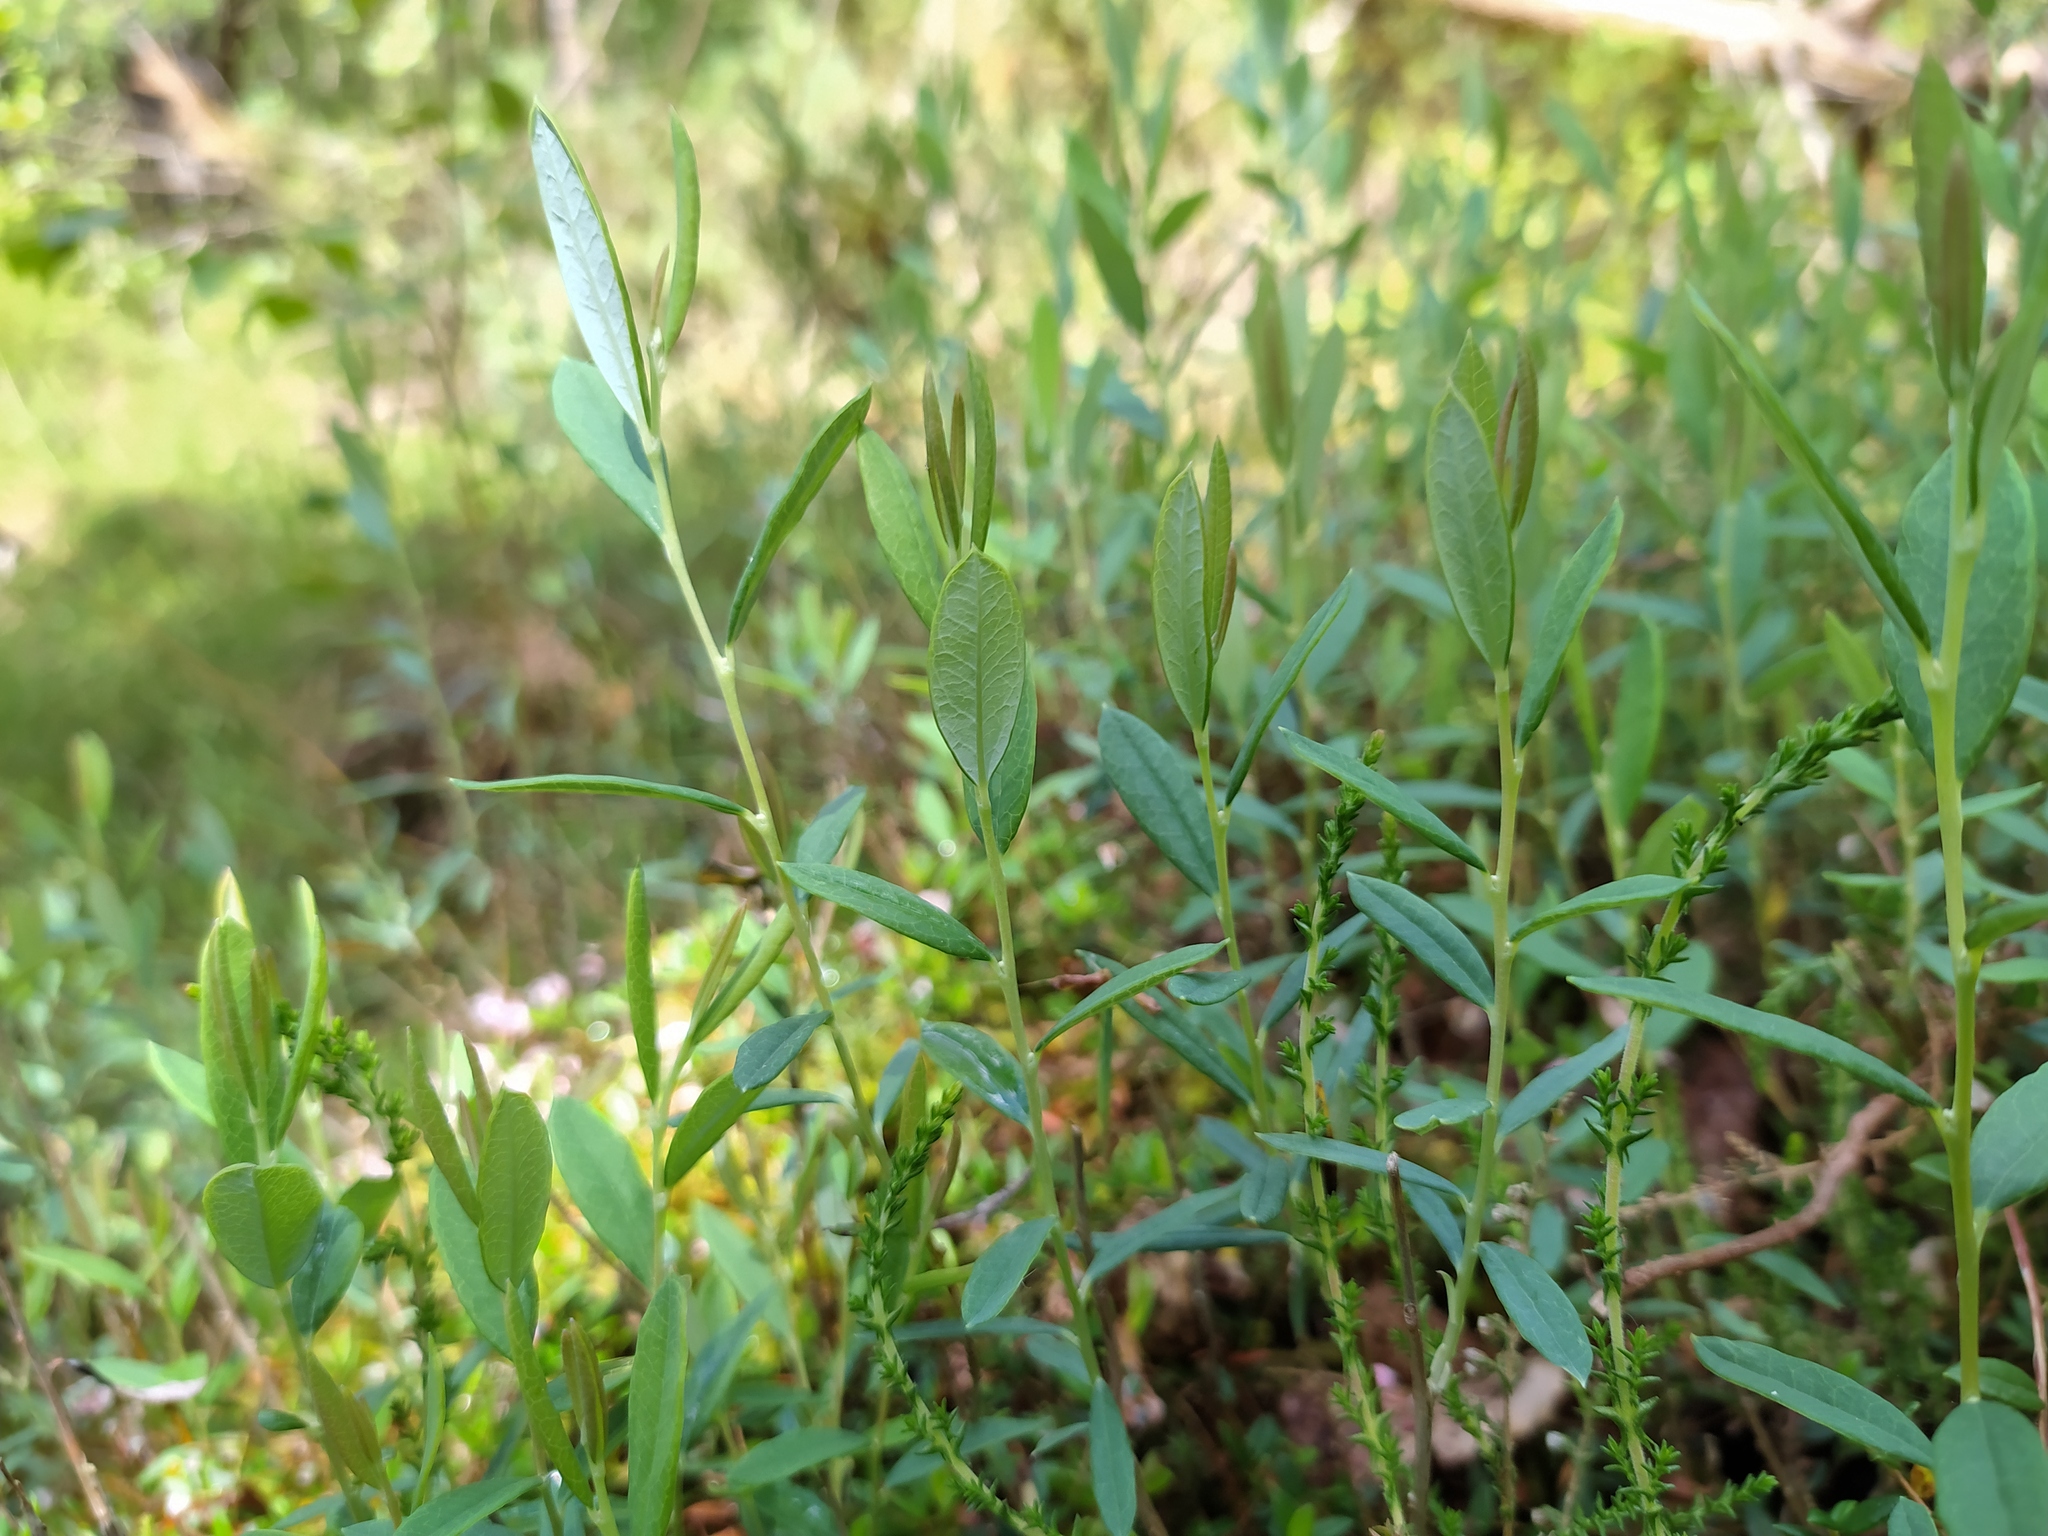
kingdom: Plantae
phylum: Tracheophyta
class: Magnoliopsida
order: Ericales
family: Ericaceae
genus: Andromeda
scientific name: Andromeda polifolia
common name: Bog-rosemary
